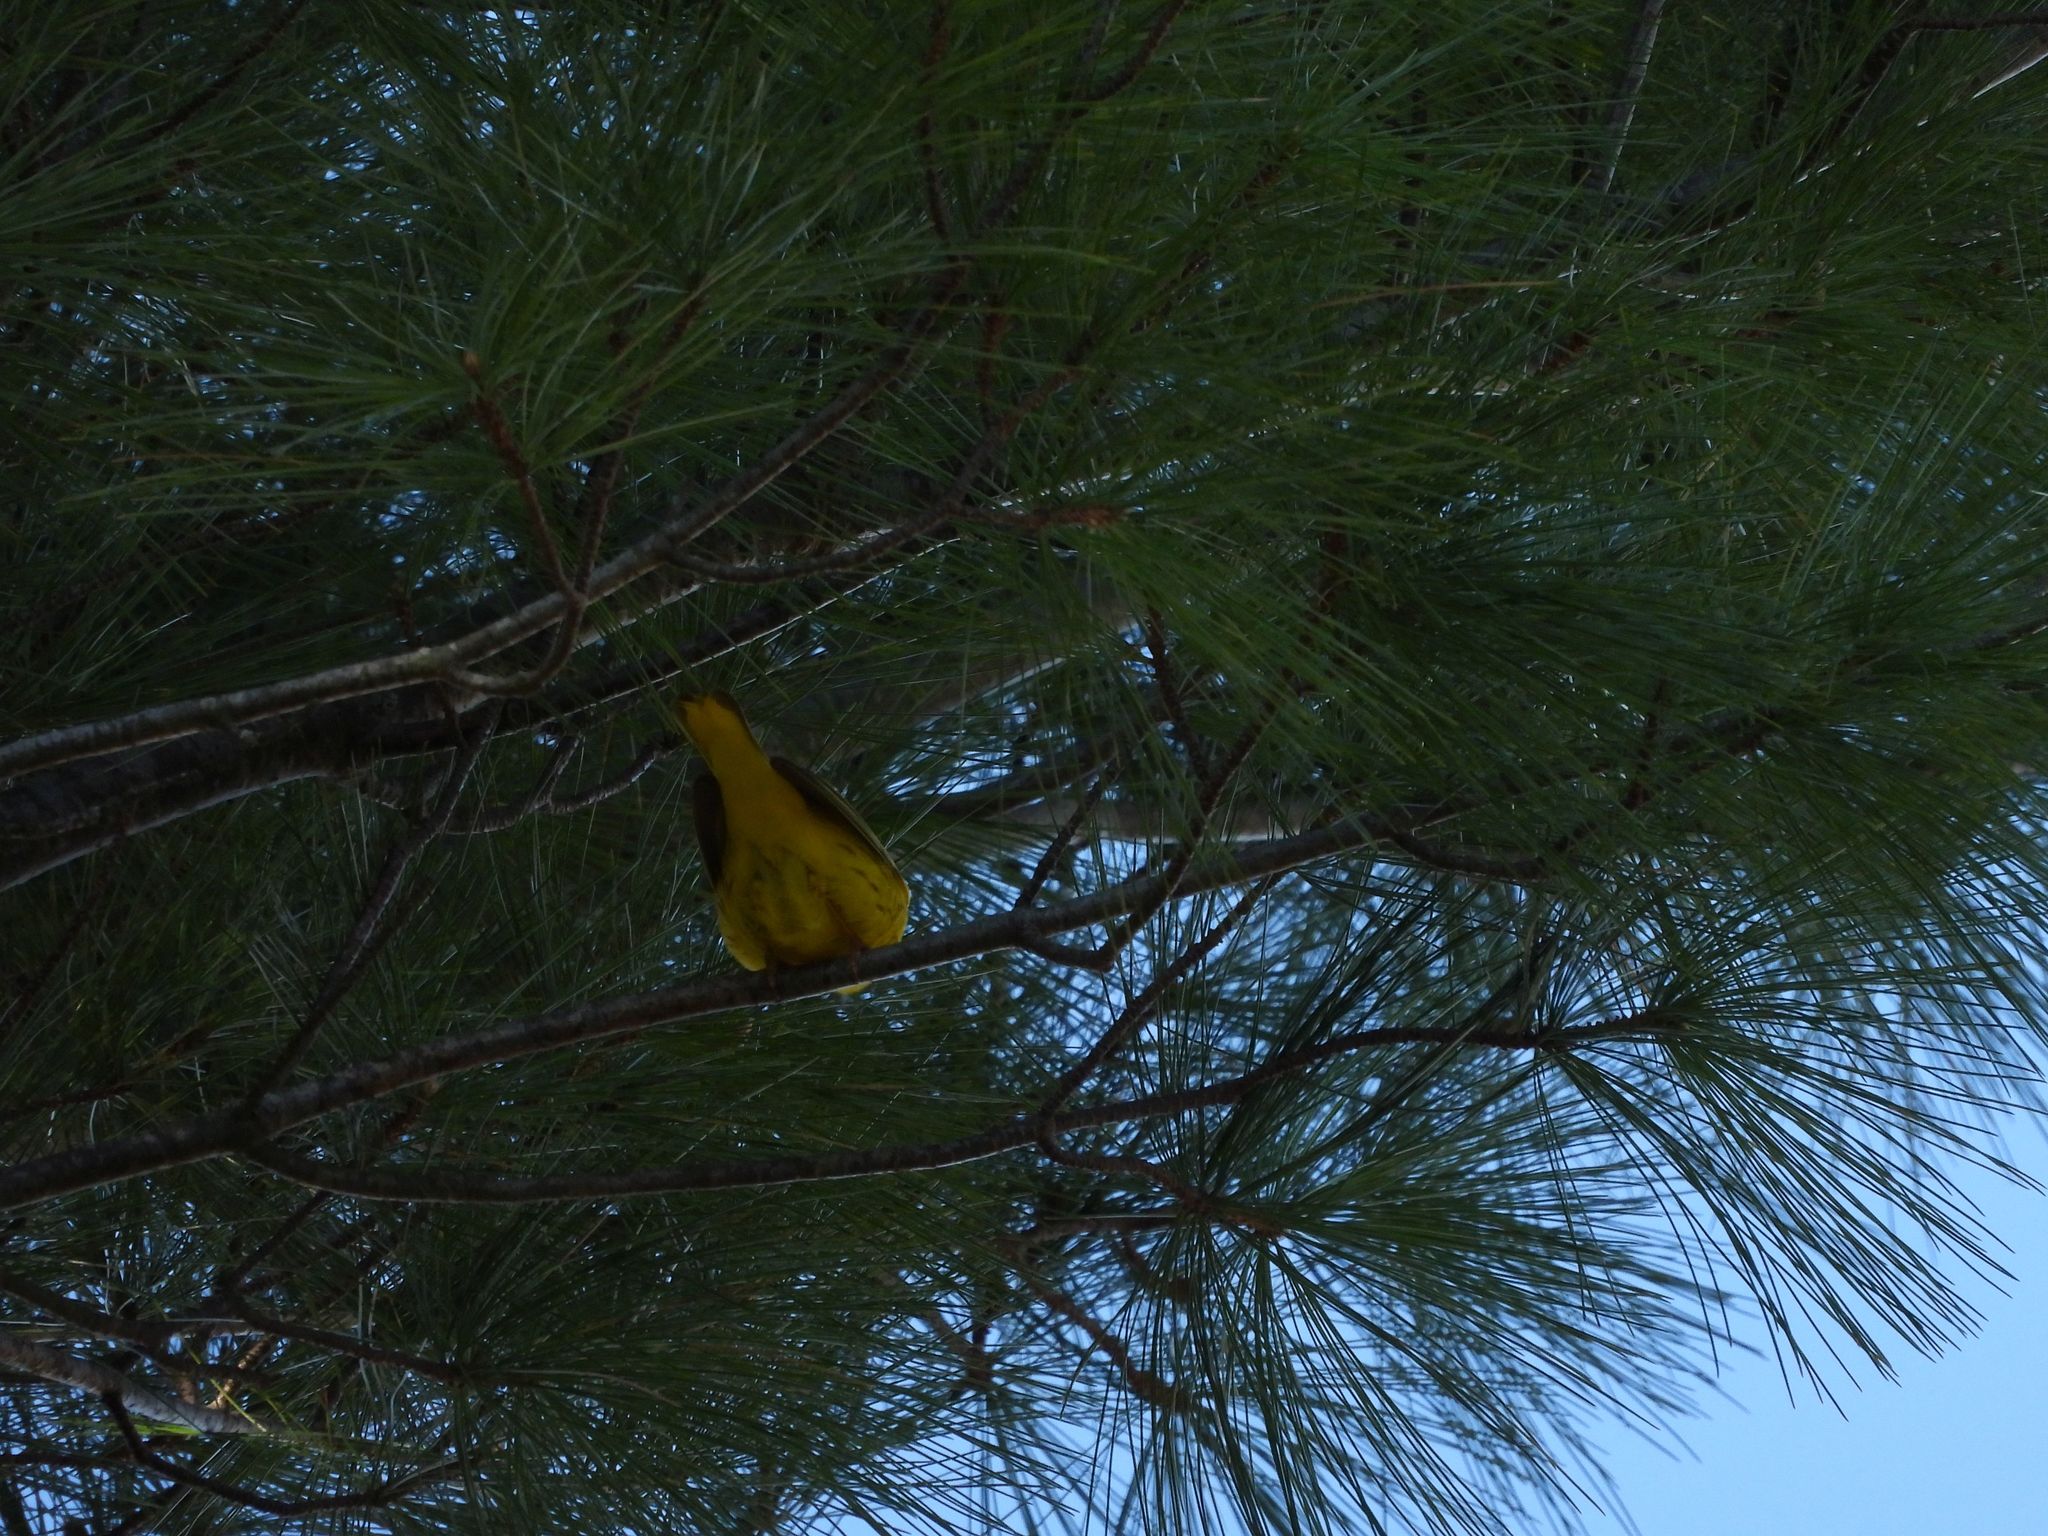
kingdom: Animalia
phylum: Chordata
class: Aves
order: Passeriformes
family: Parulidae
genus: Setophaga
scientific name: Setophaga petechia
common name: Yellow warbler
